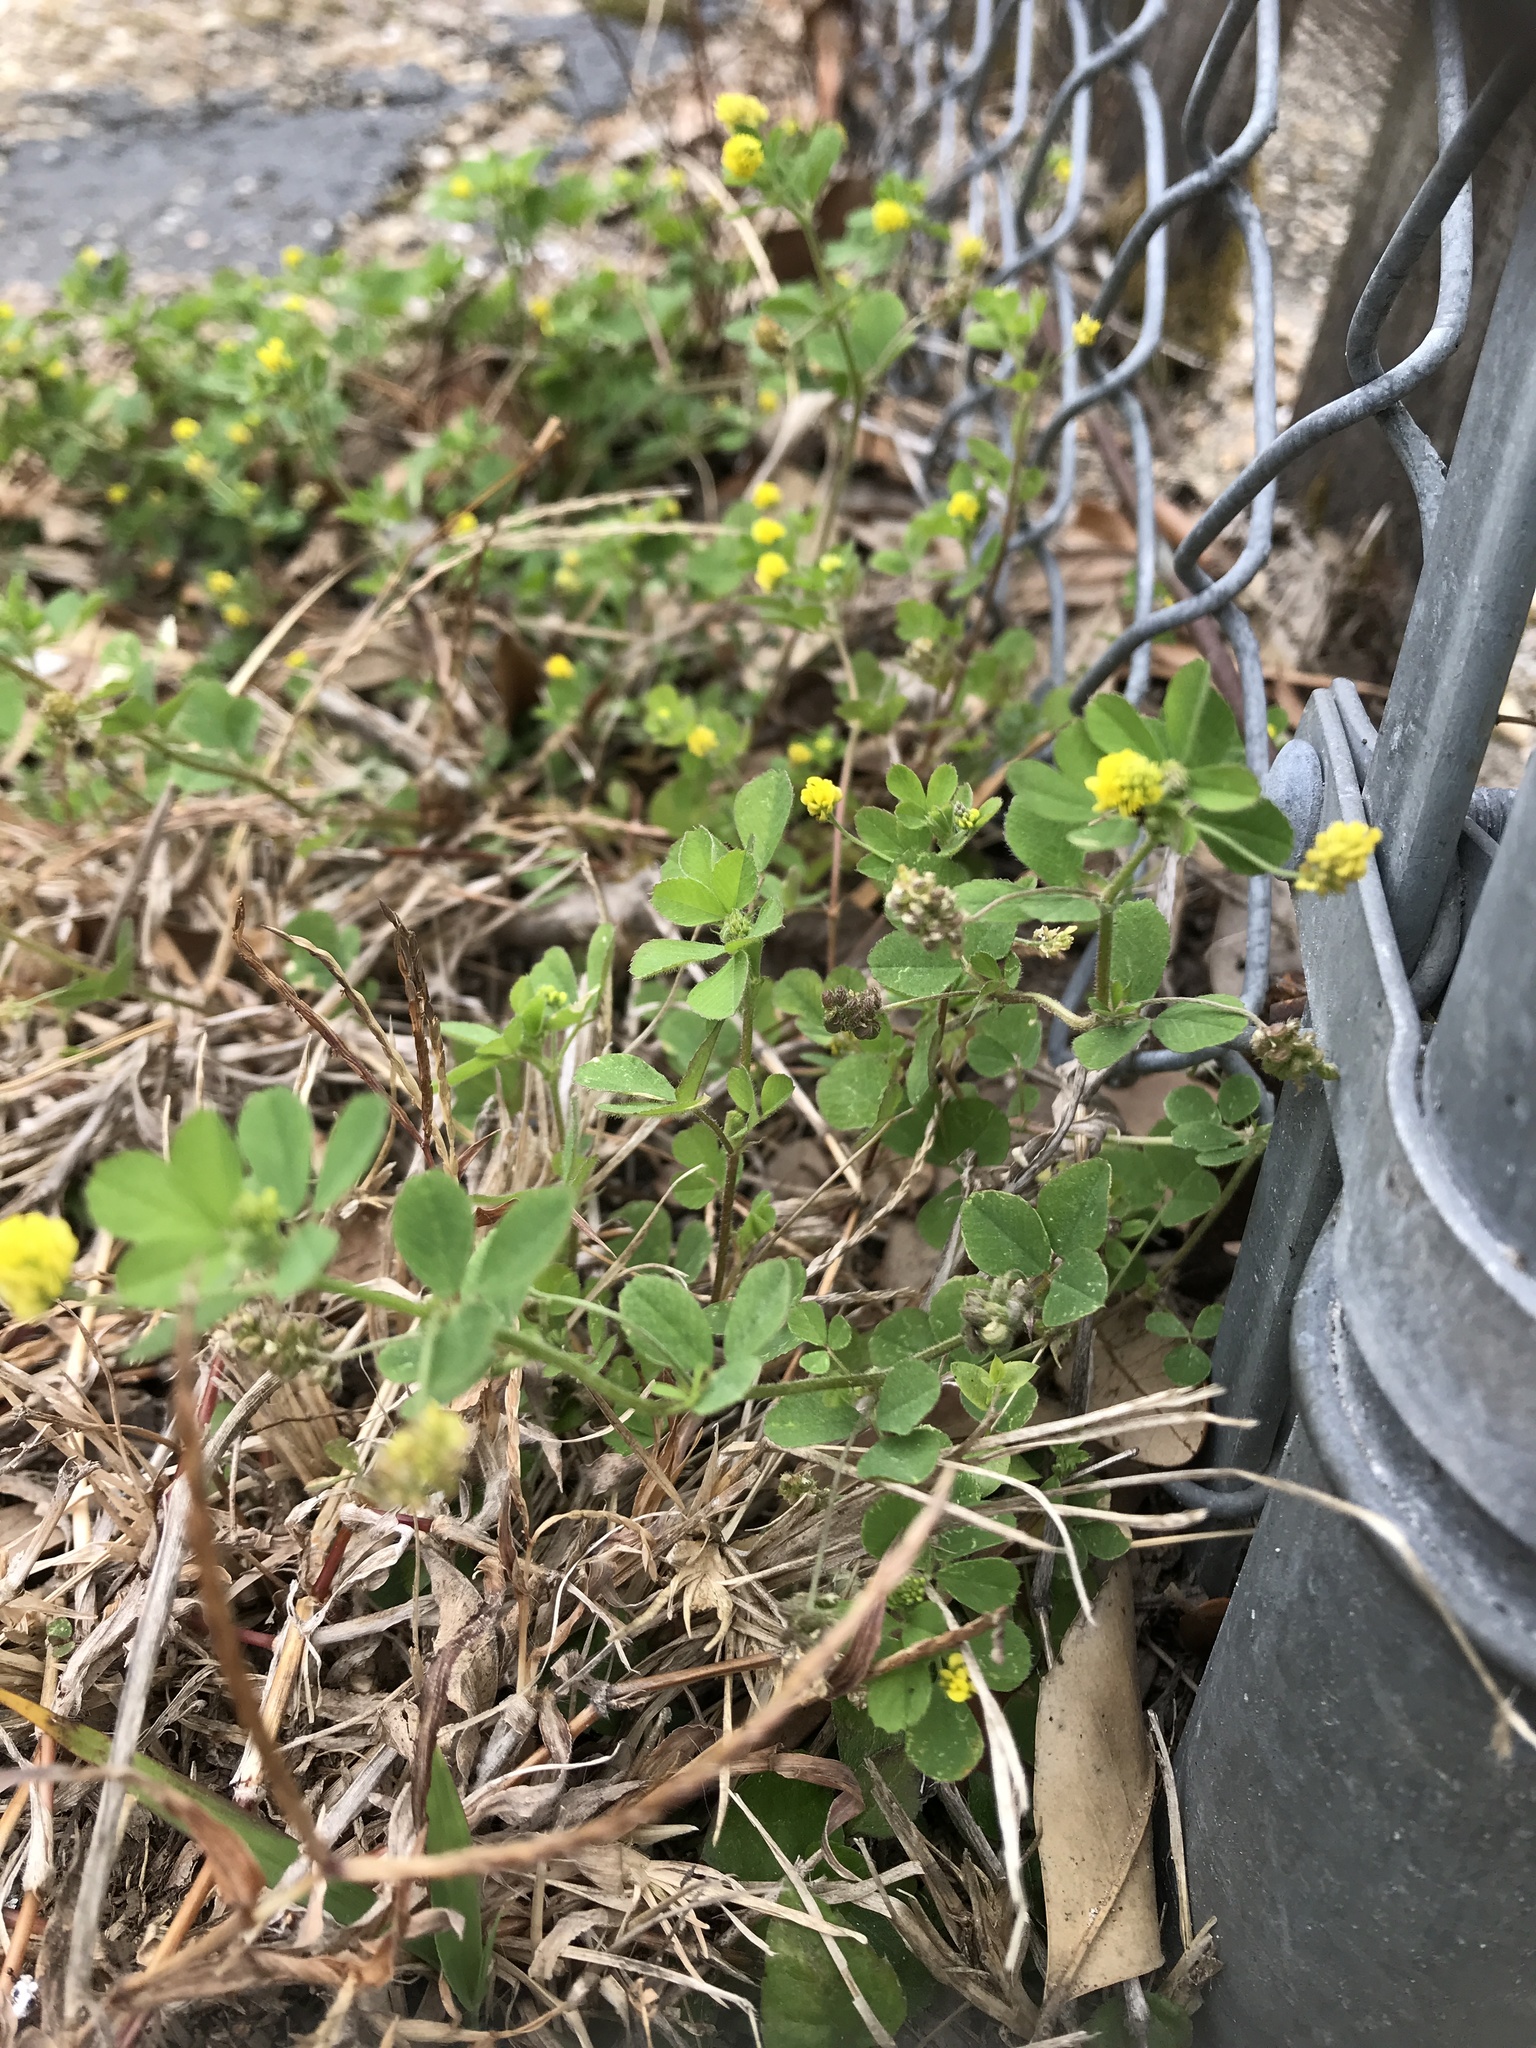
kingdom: Plantae
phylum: Tracheophyta
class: Magnoliopsida
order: Fabales
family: Fabaceae
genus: Medicago
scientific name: Medicago lupulina
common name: Black medick
